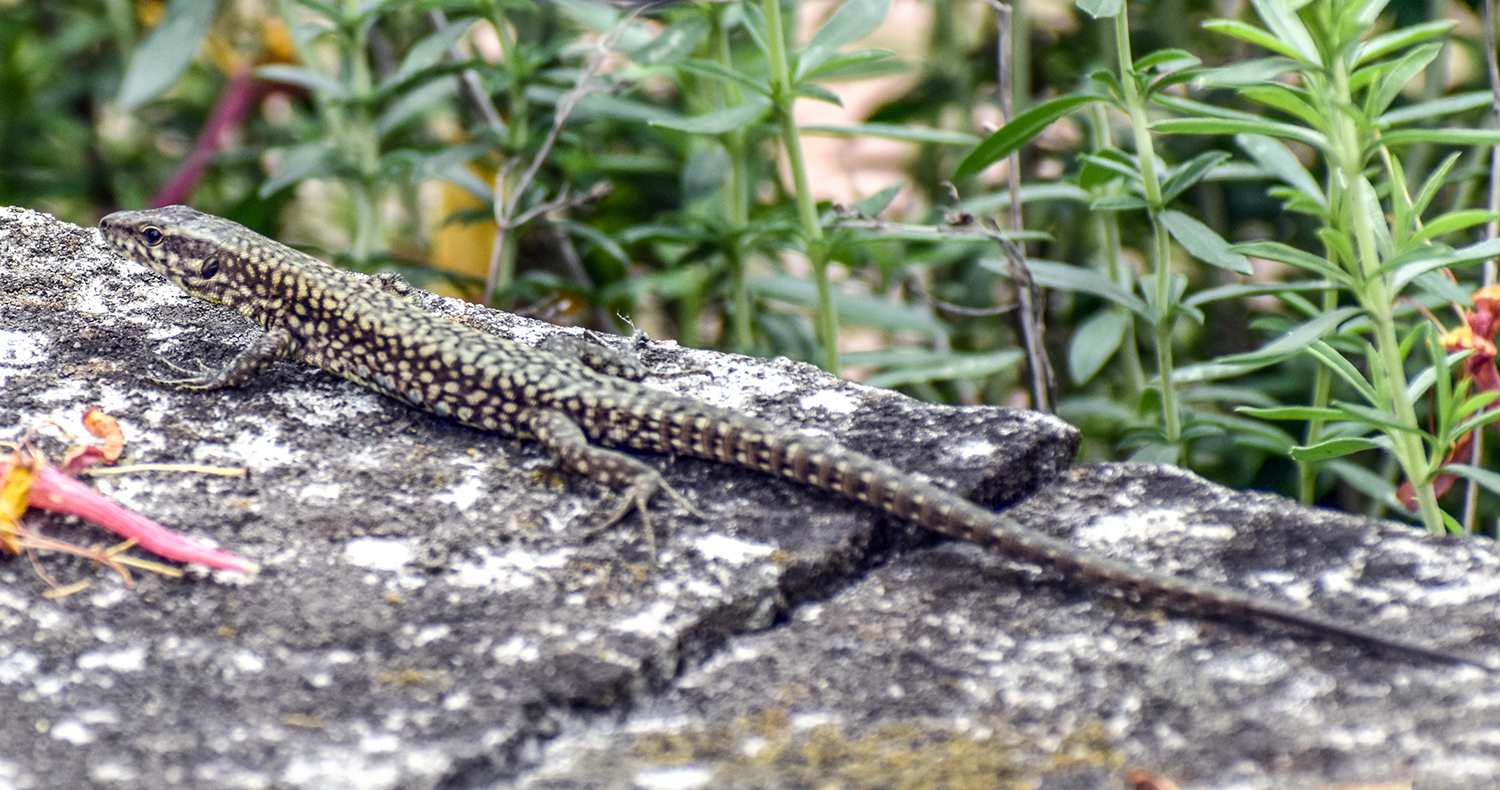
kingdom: Animalia
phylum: Chordata
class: Squamata
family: Lacertidae
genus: Podarcis
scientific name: Podarcis muralis
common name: Common wall lizard
